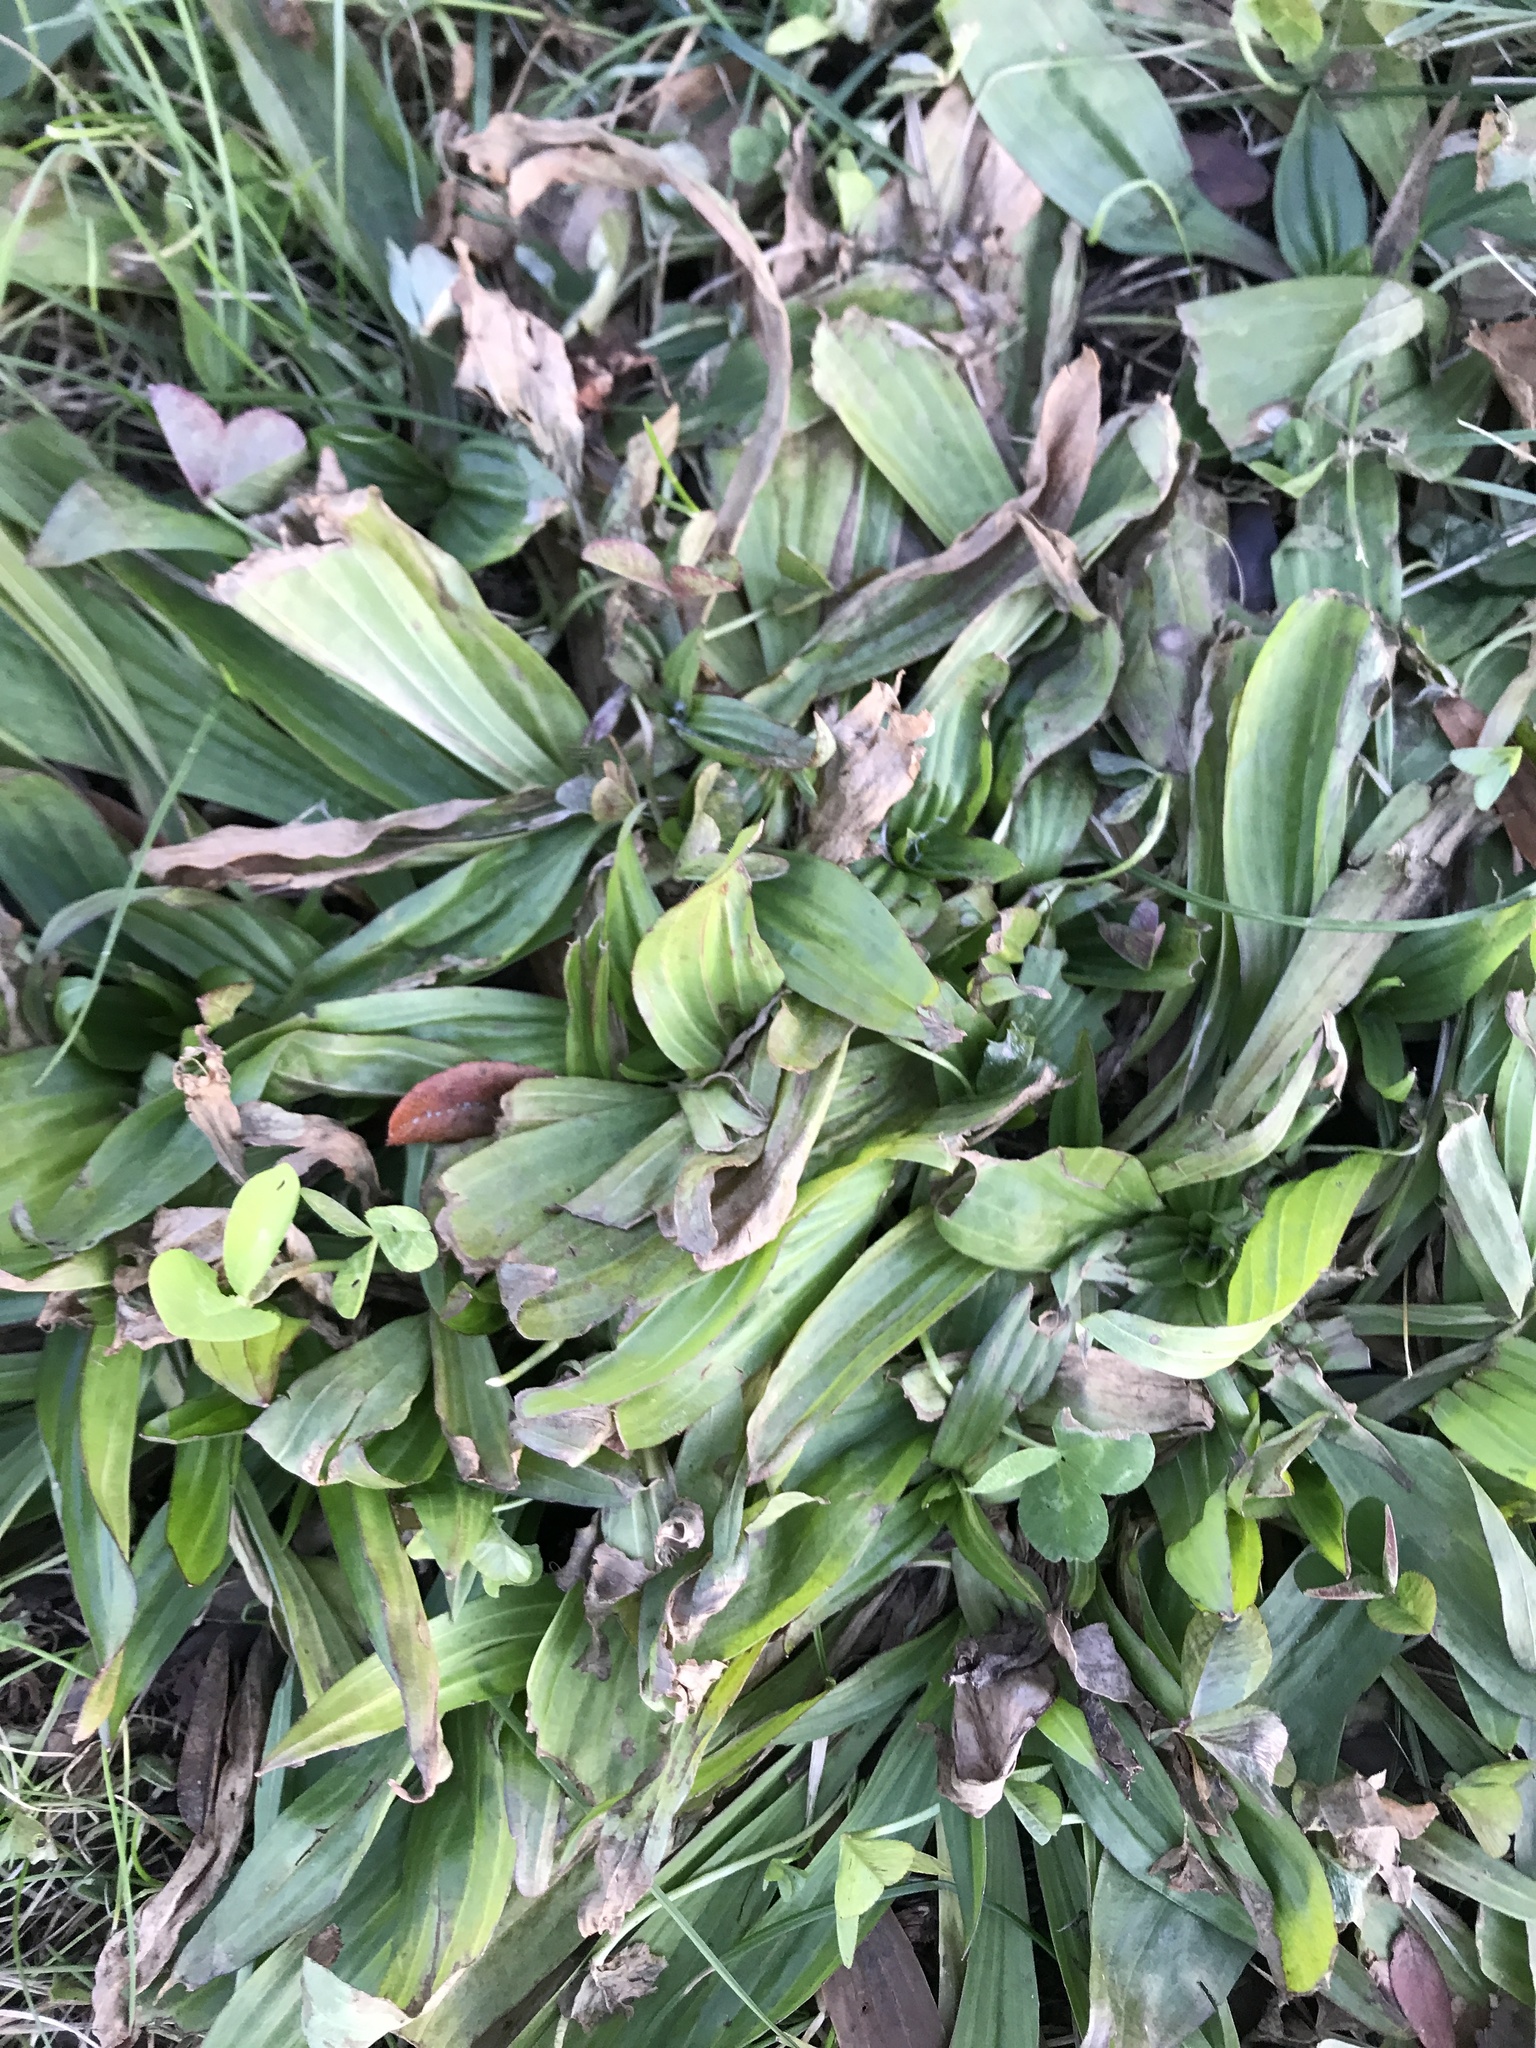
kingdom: Plantae
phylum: Tracheophyta
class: Magnoliopsida
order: Lamiales
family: Plantaginaceae
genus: Plantago
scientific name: Plantago lanceolata
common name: Ribwort plantain
